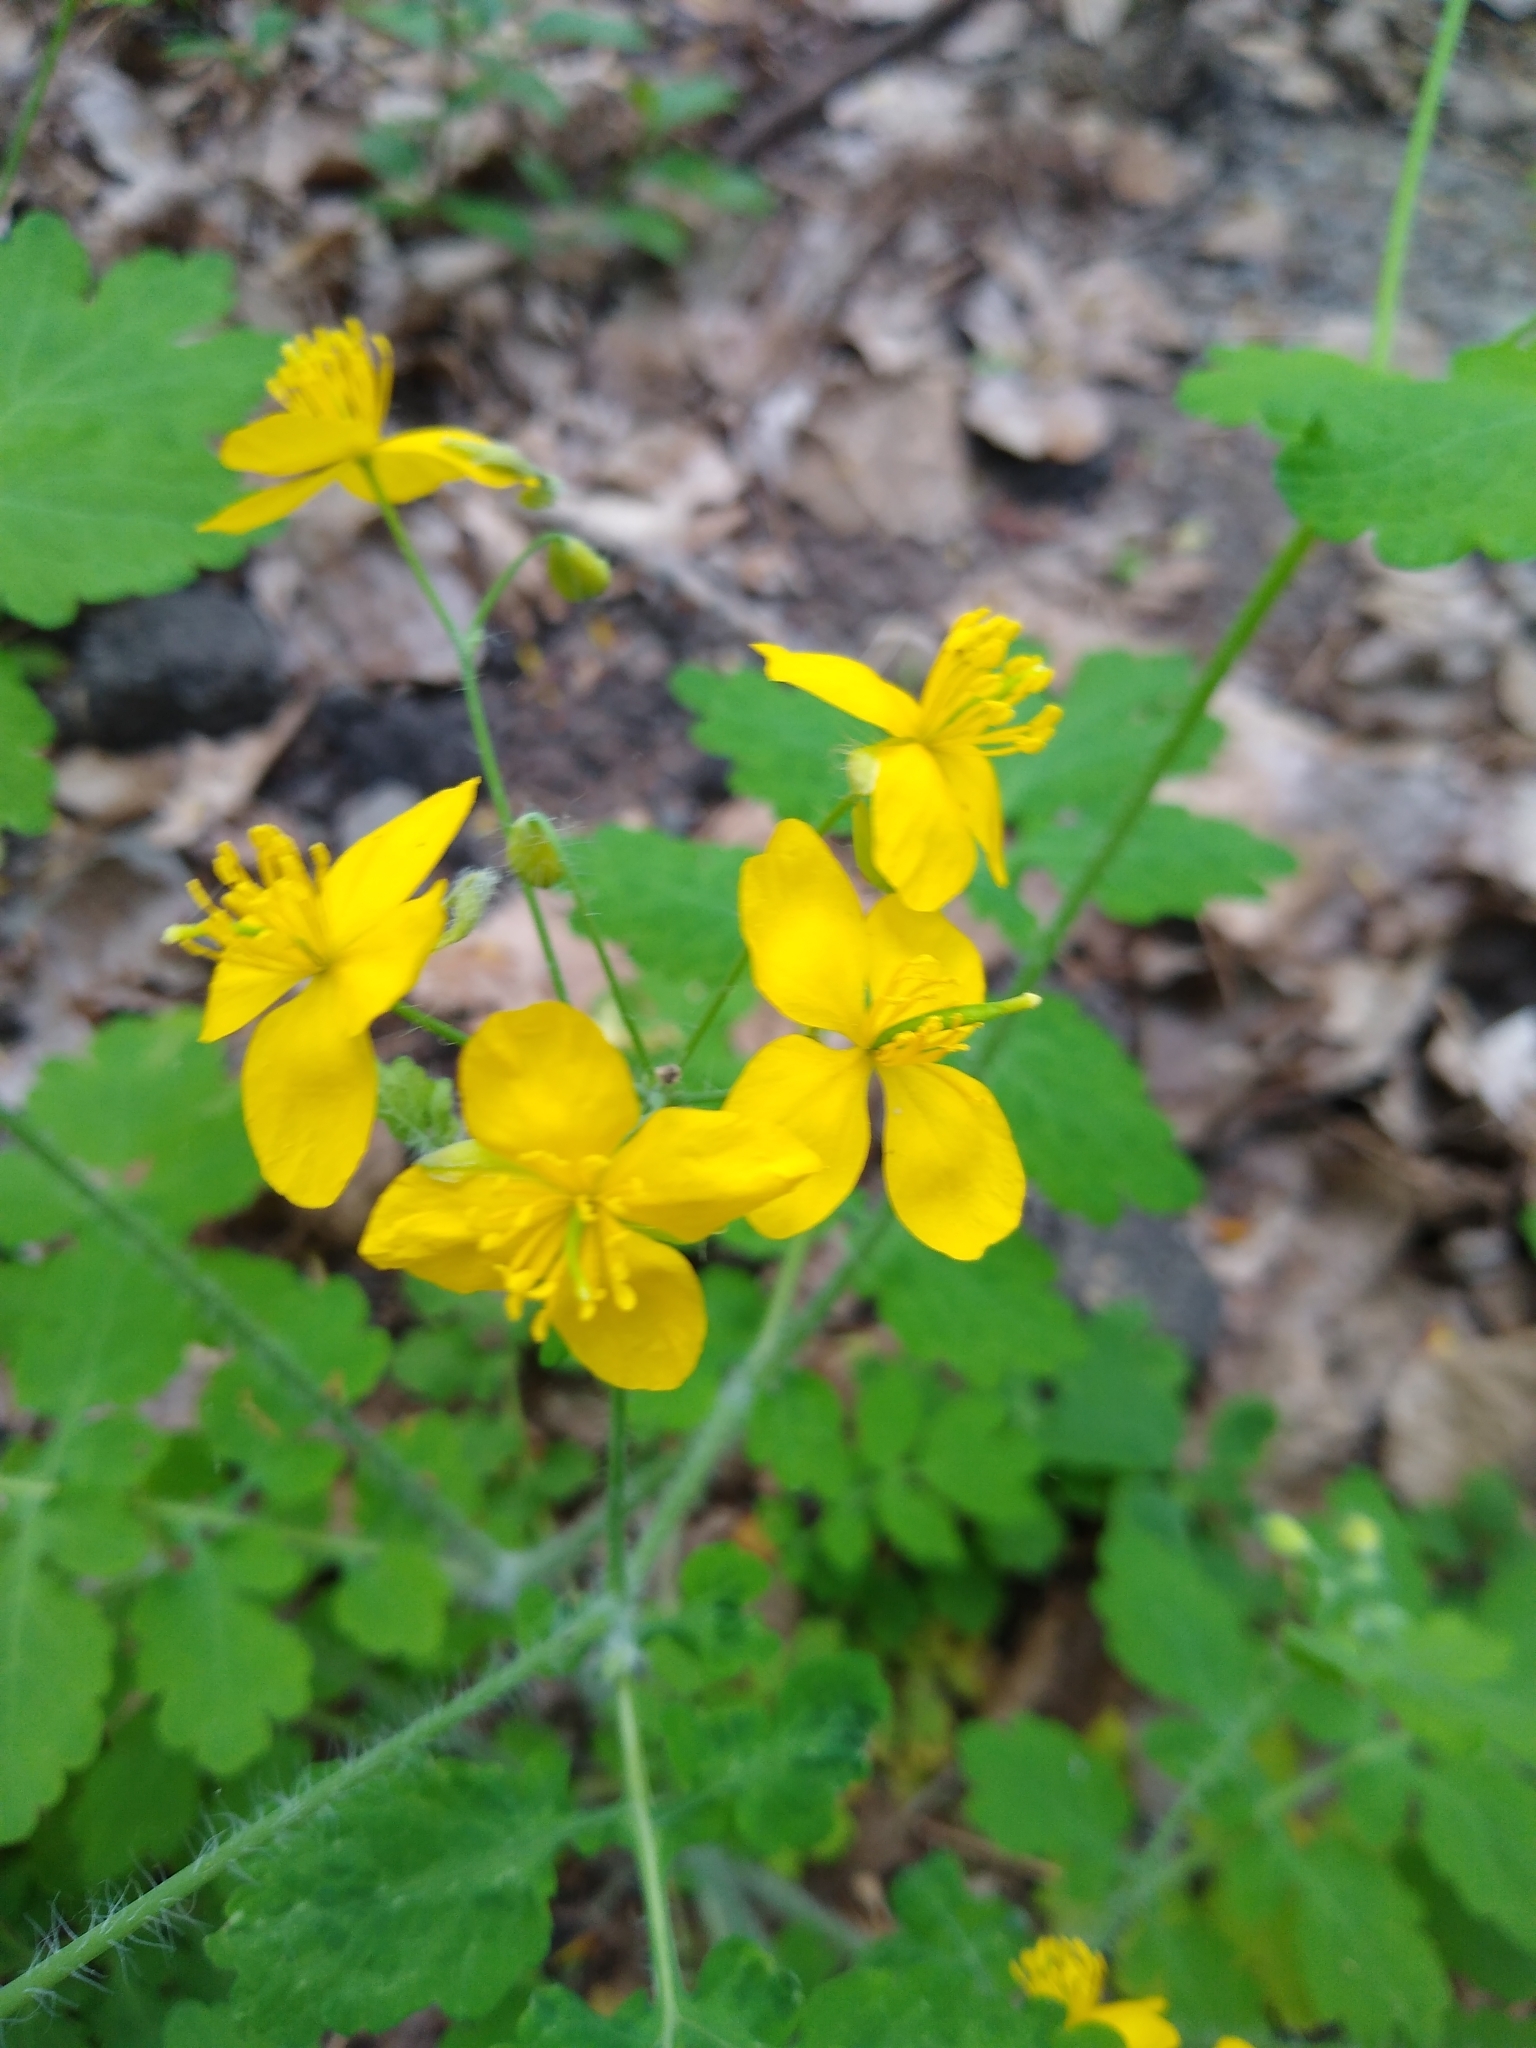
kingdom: Plantae
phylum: Tracheophyta
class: Magnoliopsida
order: Ranunculales
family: Papaveraceae
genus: Chelidonium
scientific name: Chelidonium majus
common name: Greater celandine
